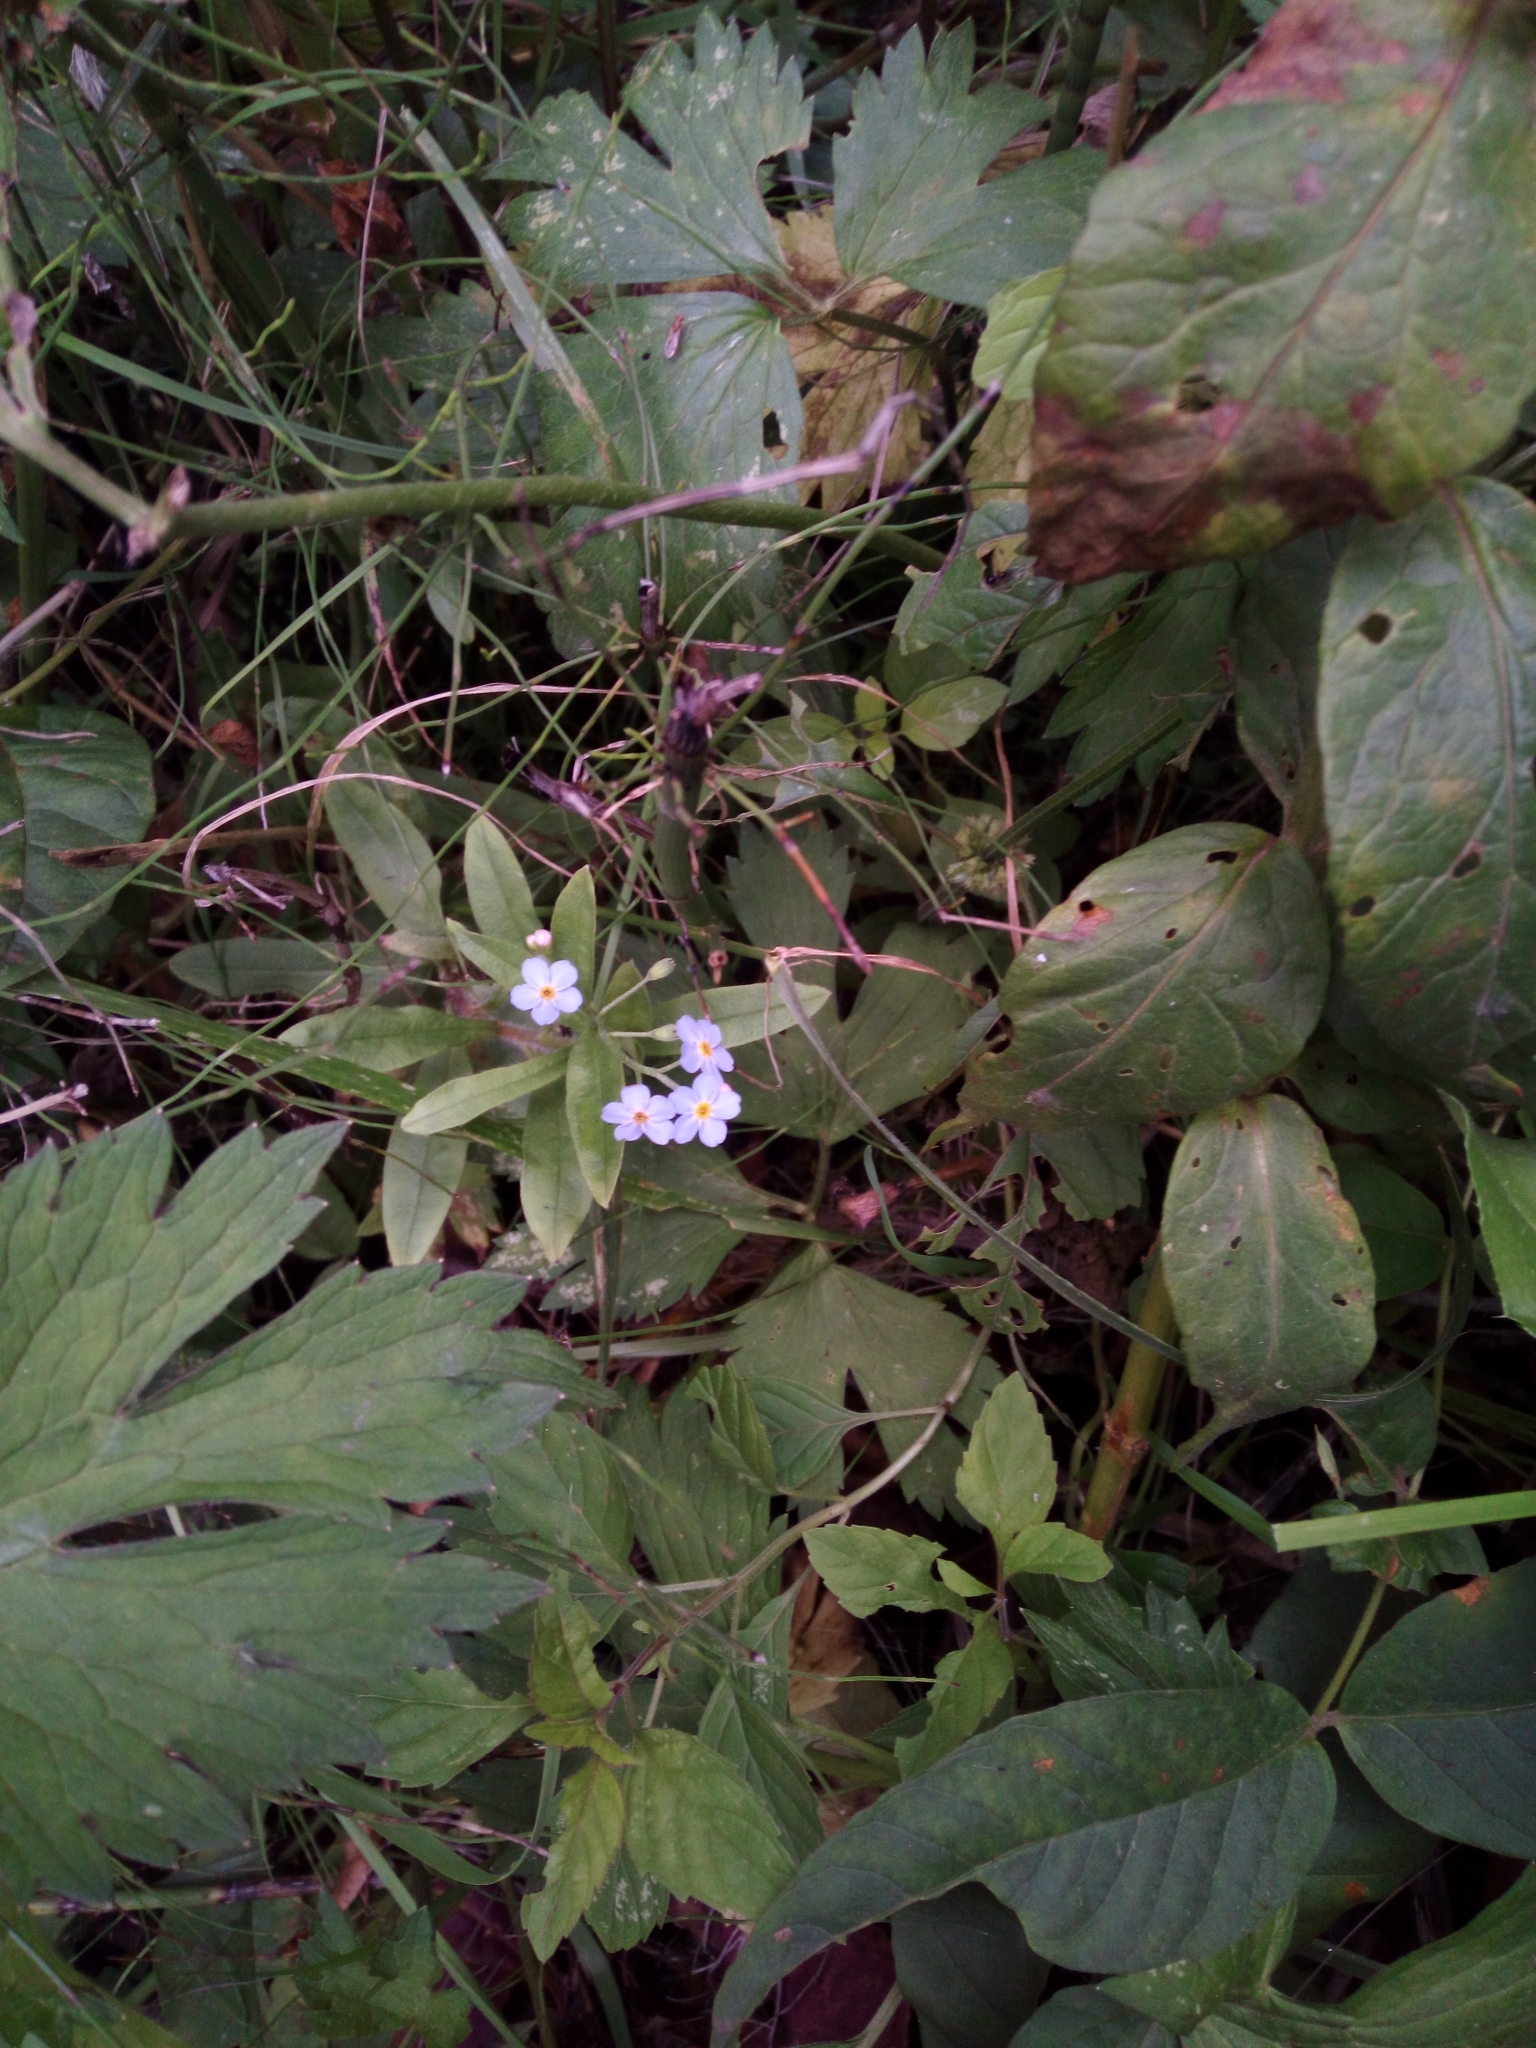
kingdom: Plantae
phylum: Tracheophyta
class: Magnoliopsida
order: Boraginales
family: Boraginaceae
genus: Myosotis
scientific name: Myosotis scorpioides
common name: Water forget-me-not
